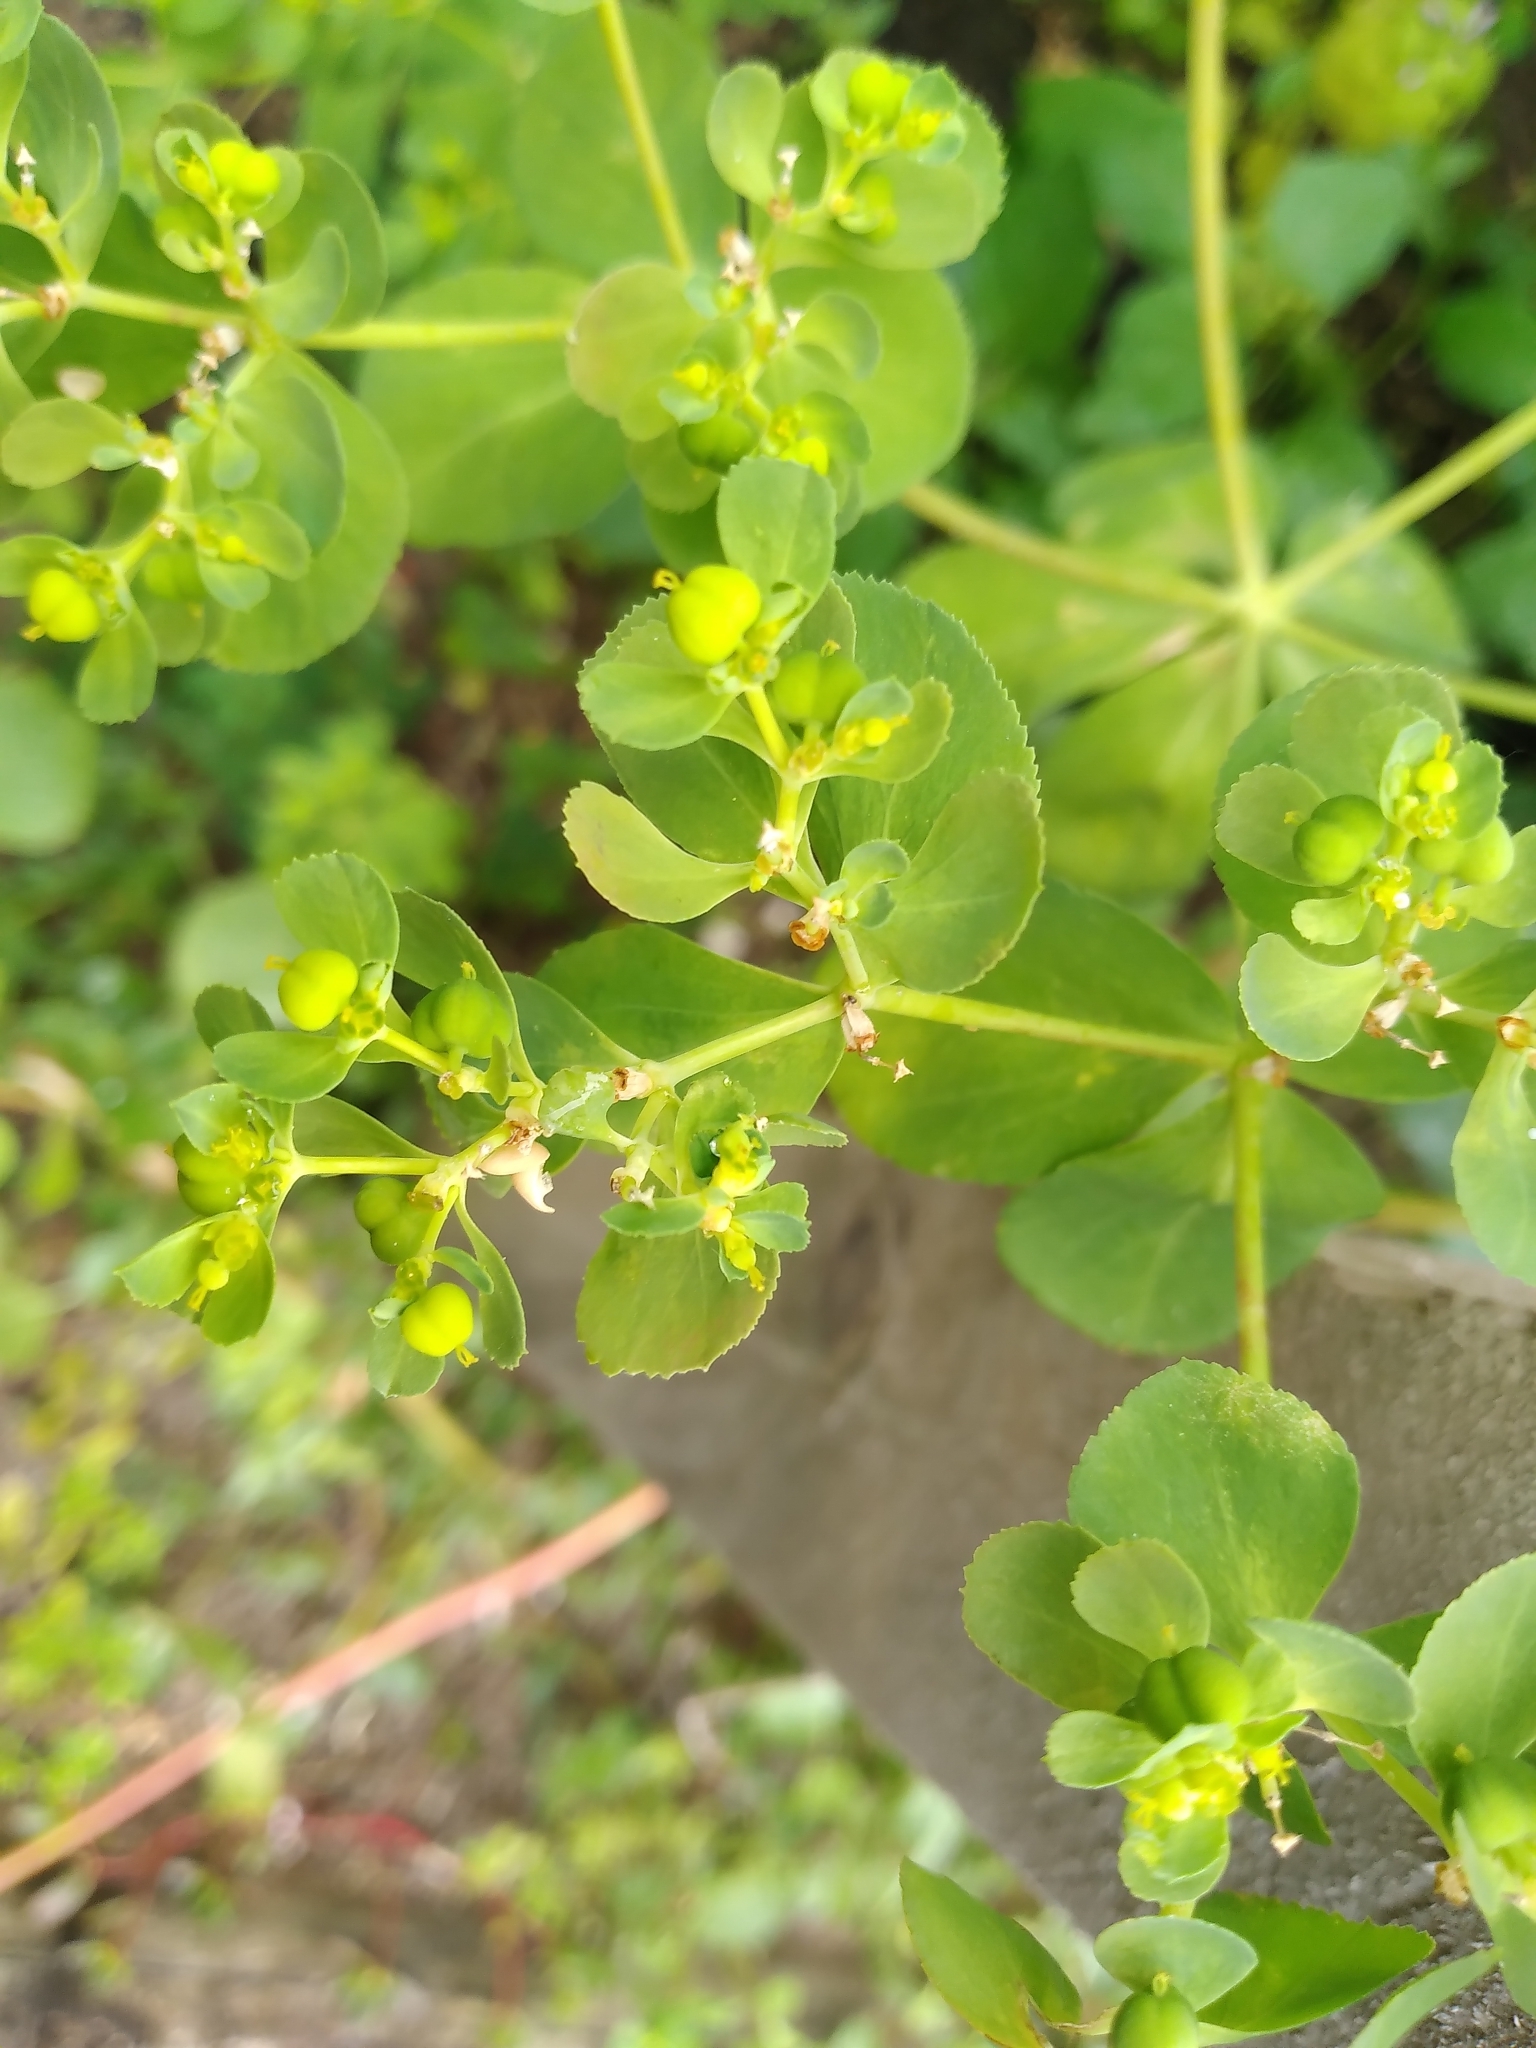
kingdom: Plantae
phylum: Tracheophyta
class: Magnoliopsida
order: Malpighiales
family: Euphorbiaceae
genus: Euphorbia
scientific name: Euphorbia helioscopia
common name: Sun spurge
